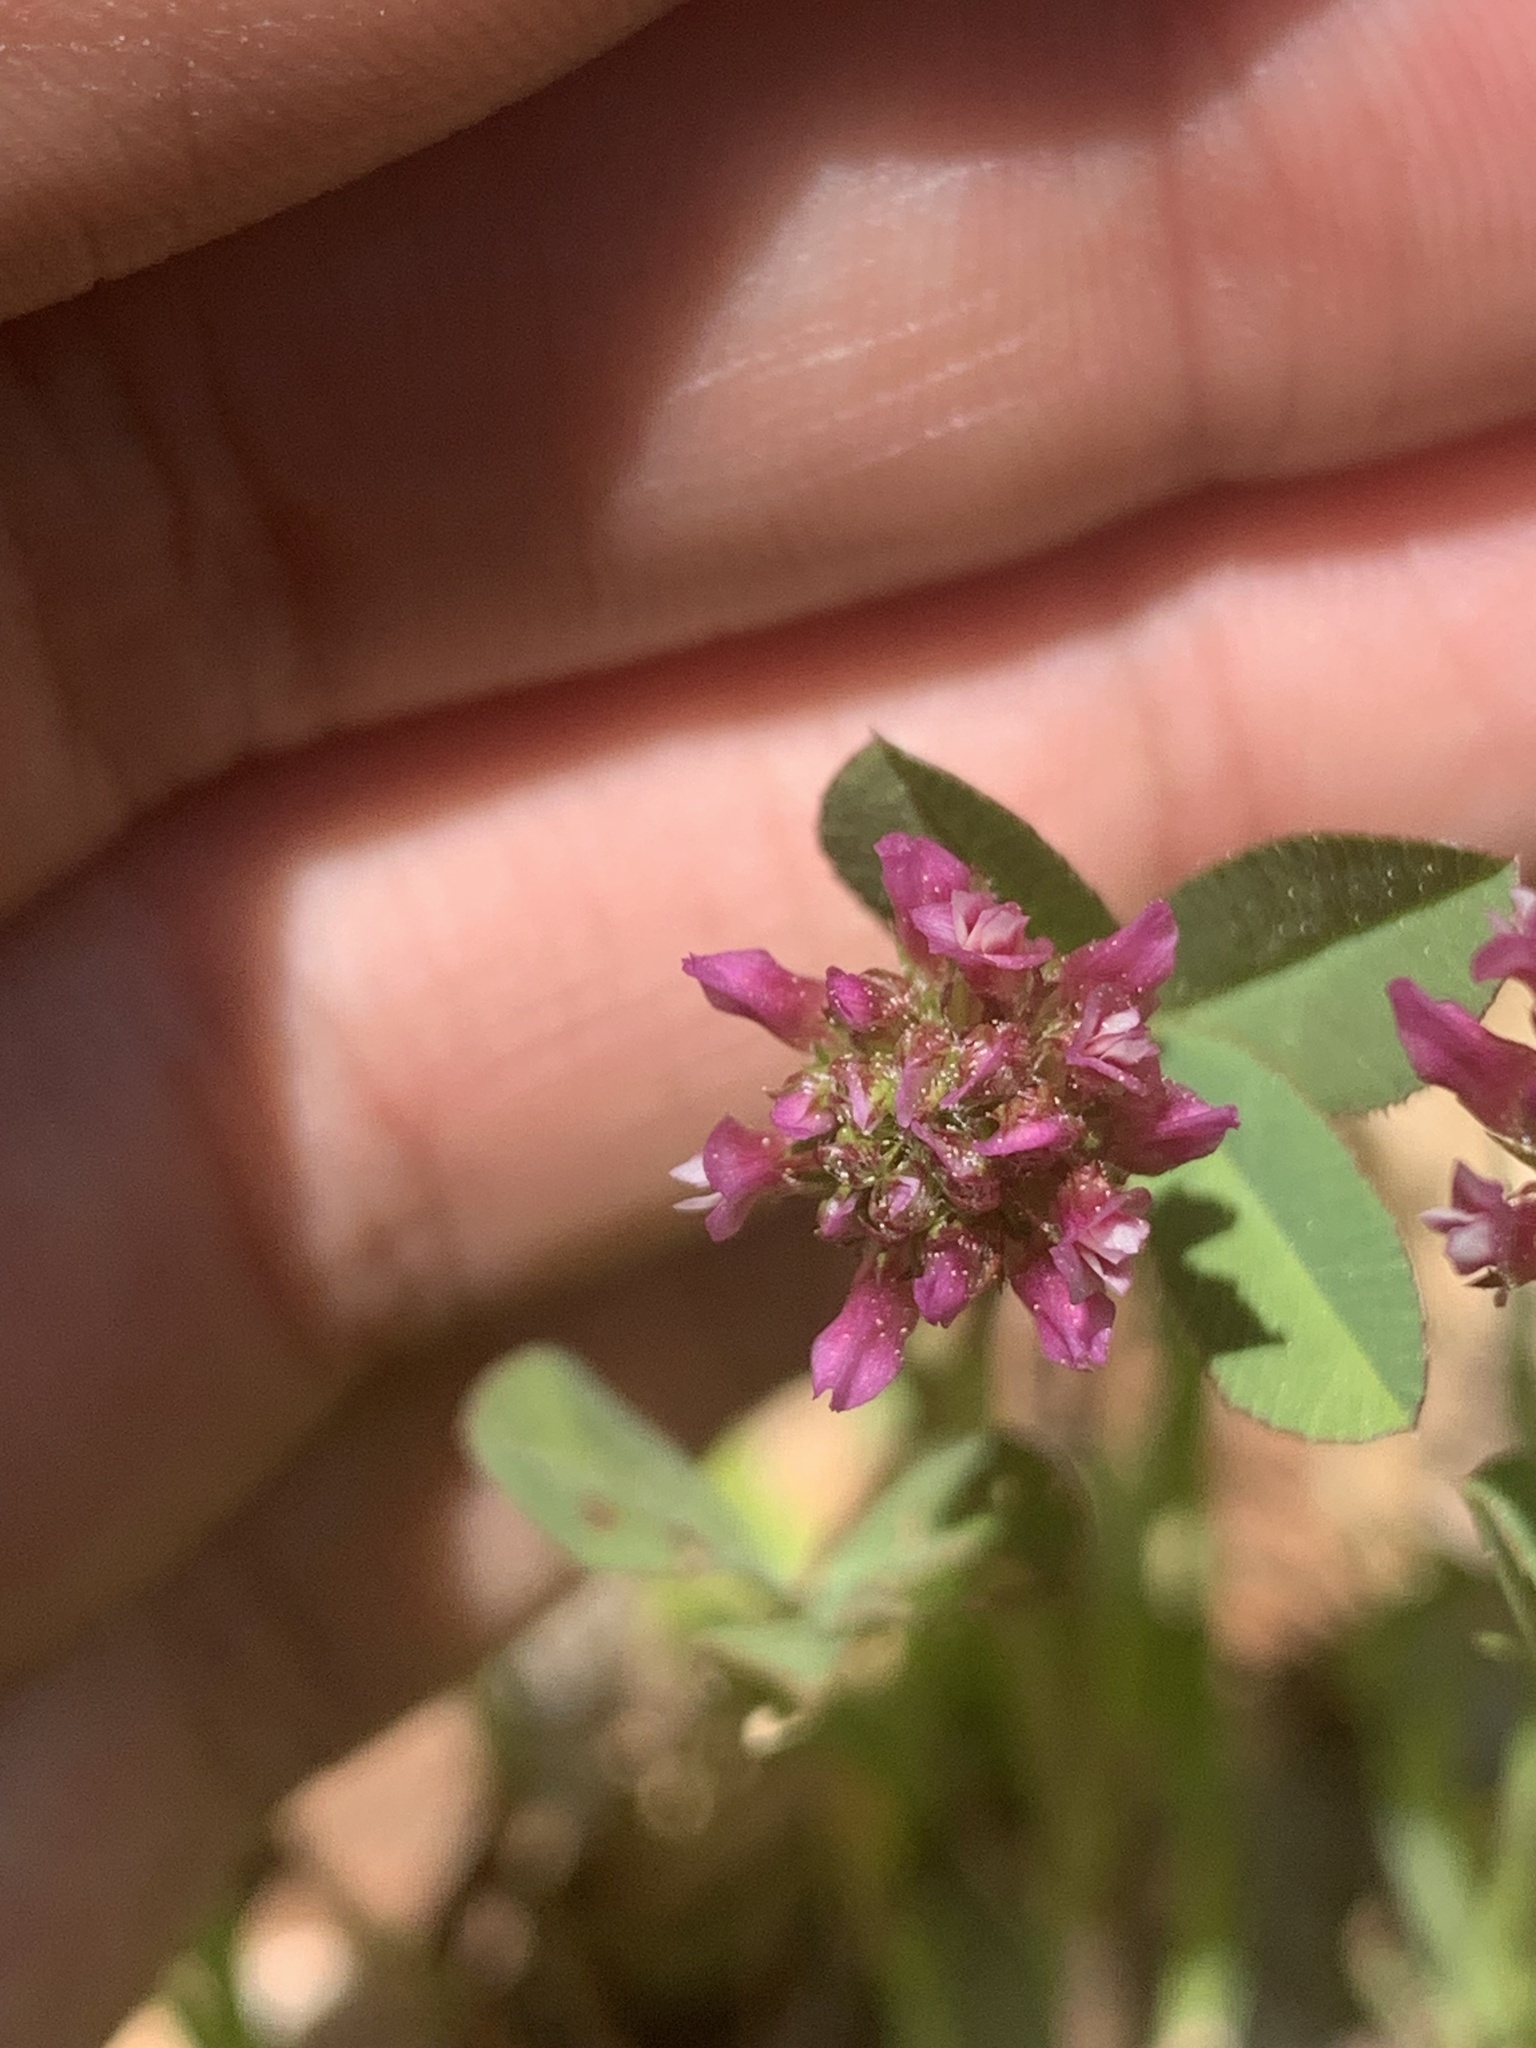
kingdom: Plantae
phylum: Tracheophyta
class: Magnoliopsida
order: Fabales
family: Fabaceae
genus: Trifolium
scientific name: Trifolium ciliolatum
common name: Foothill clover
